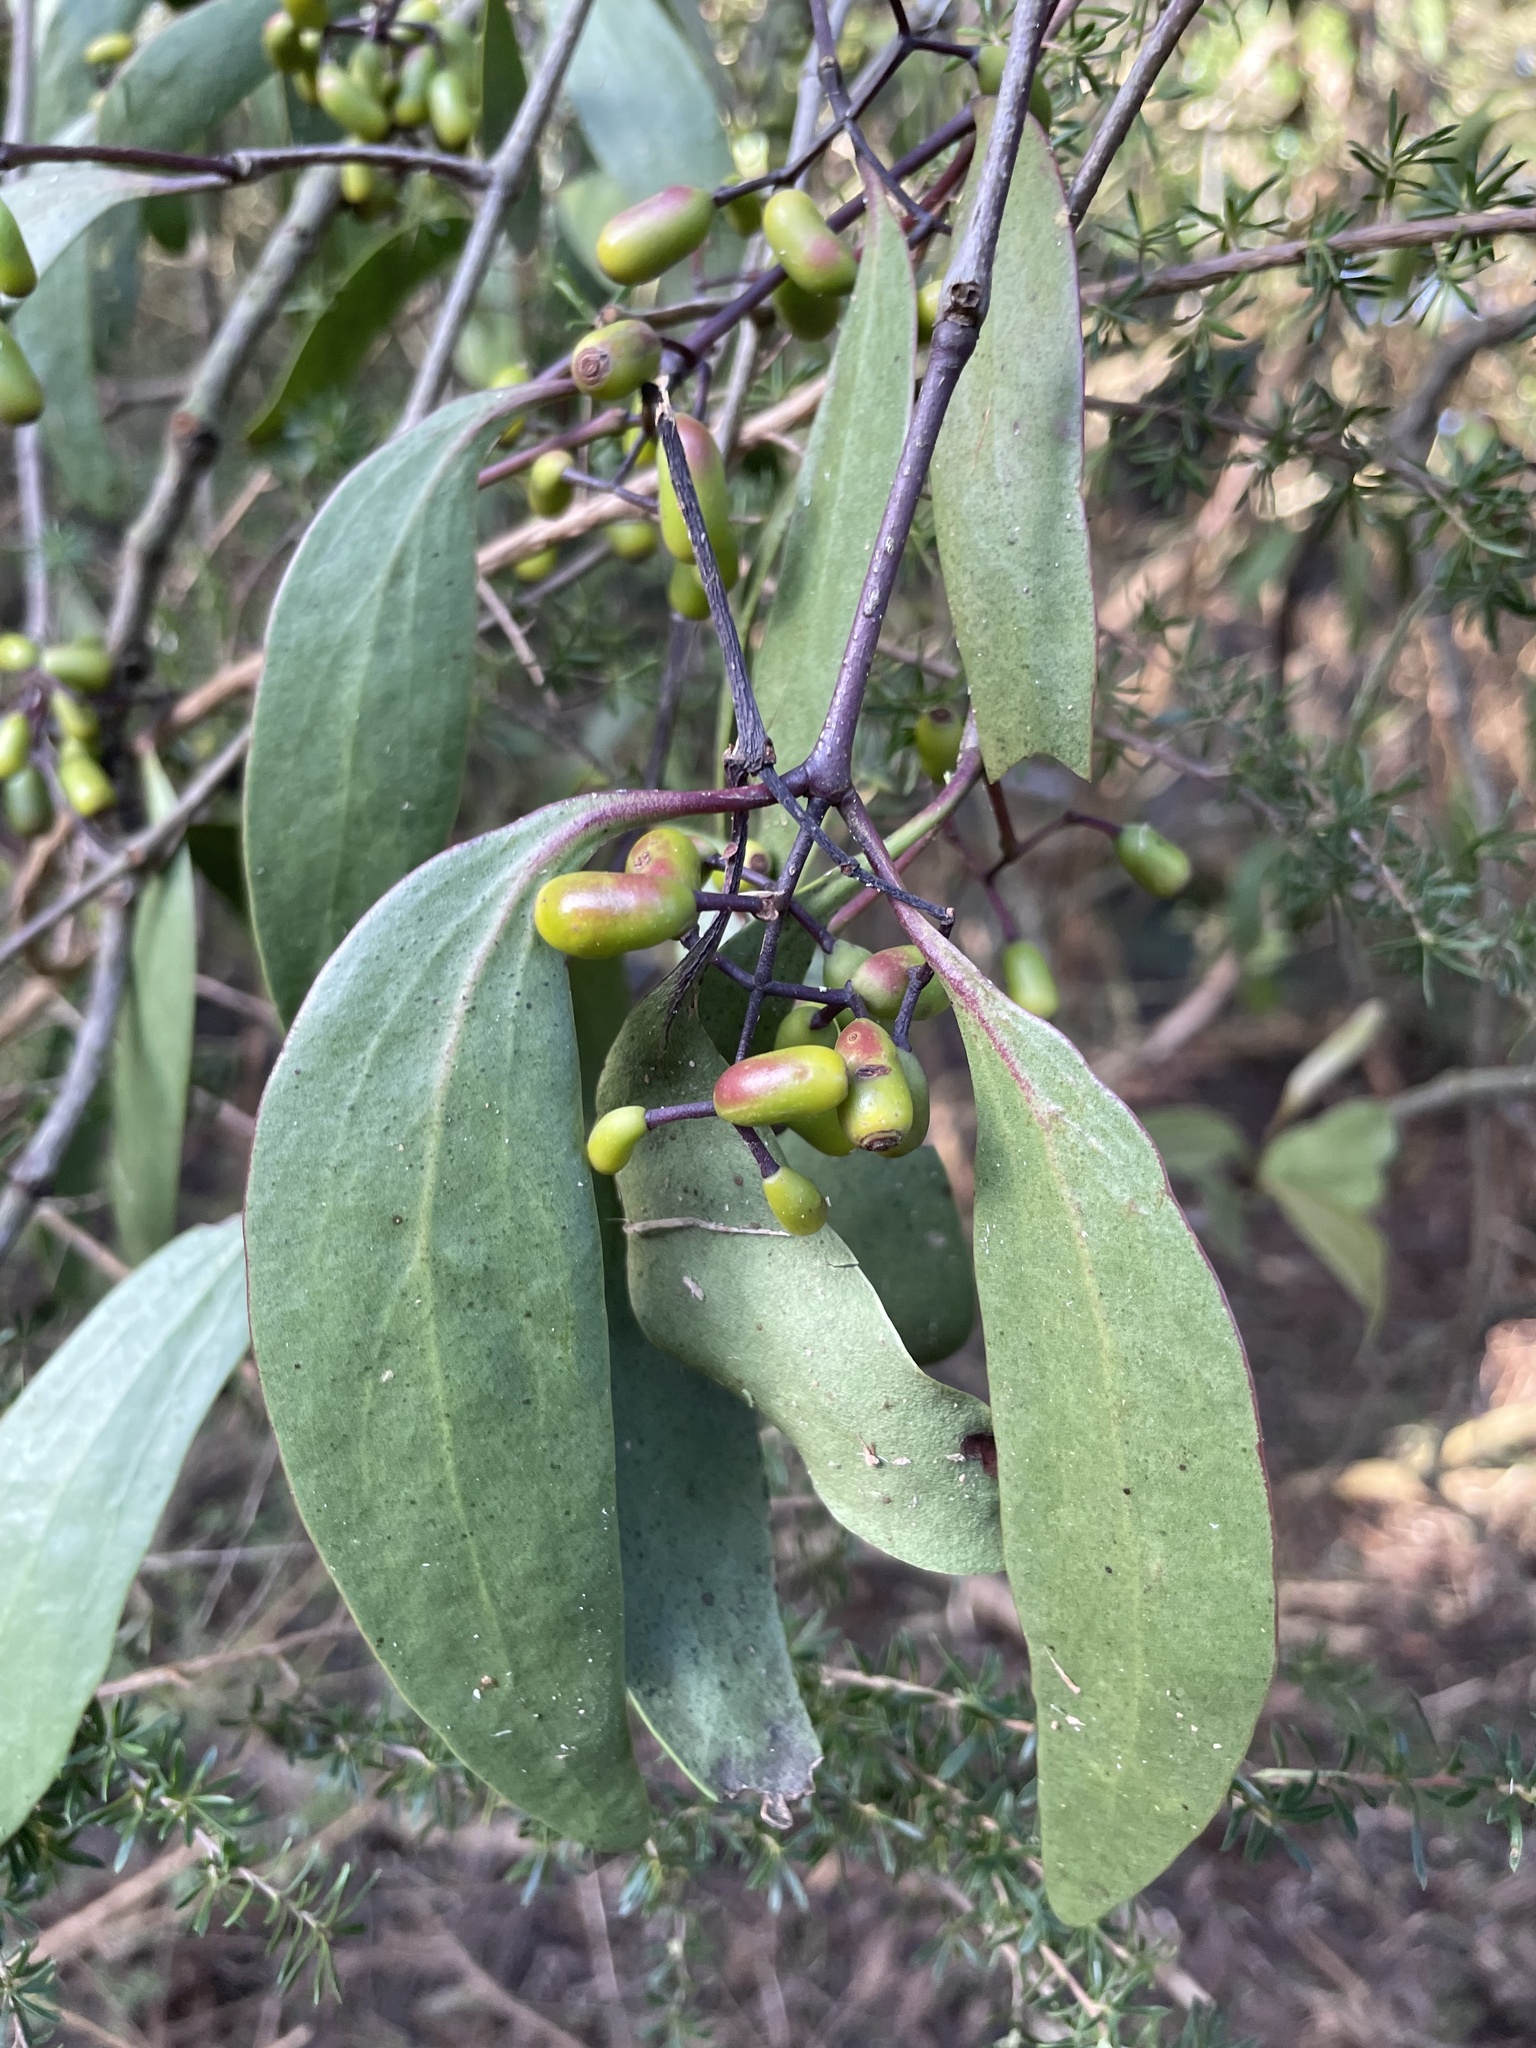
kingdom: Plantae
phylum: Tracheophyta
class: Magnoliopsida
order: Santalales
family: Loranthaceae
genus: Muellerina
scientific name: Muellerina eucalyptoides
